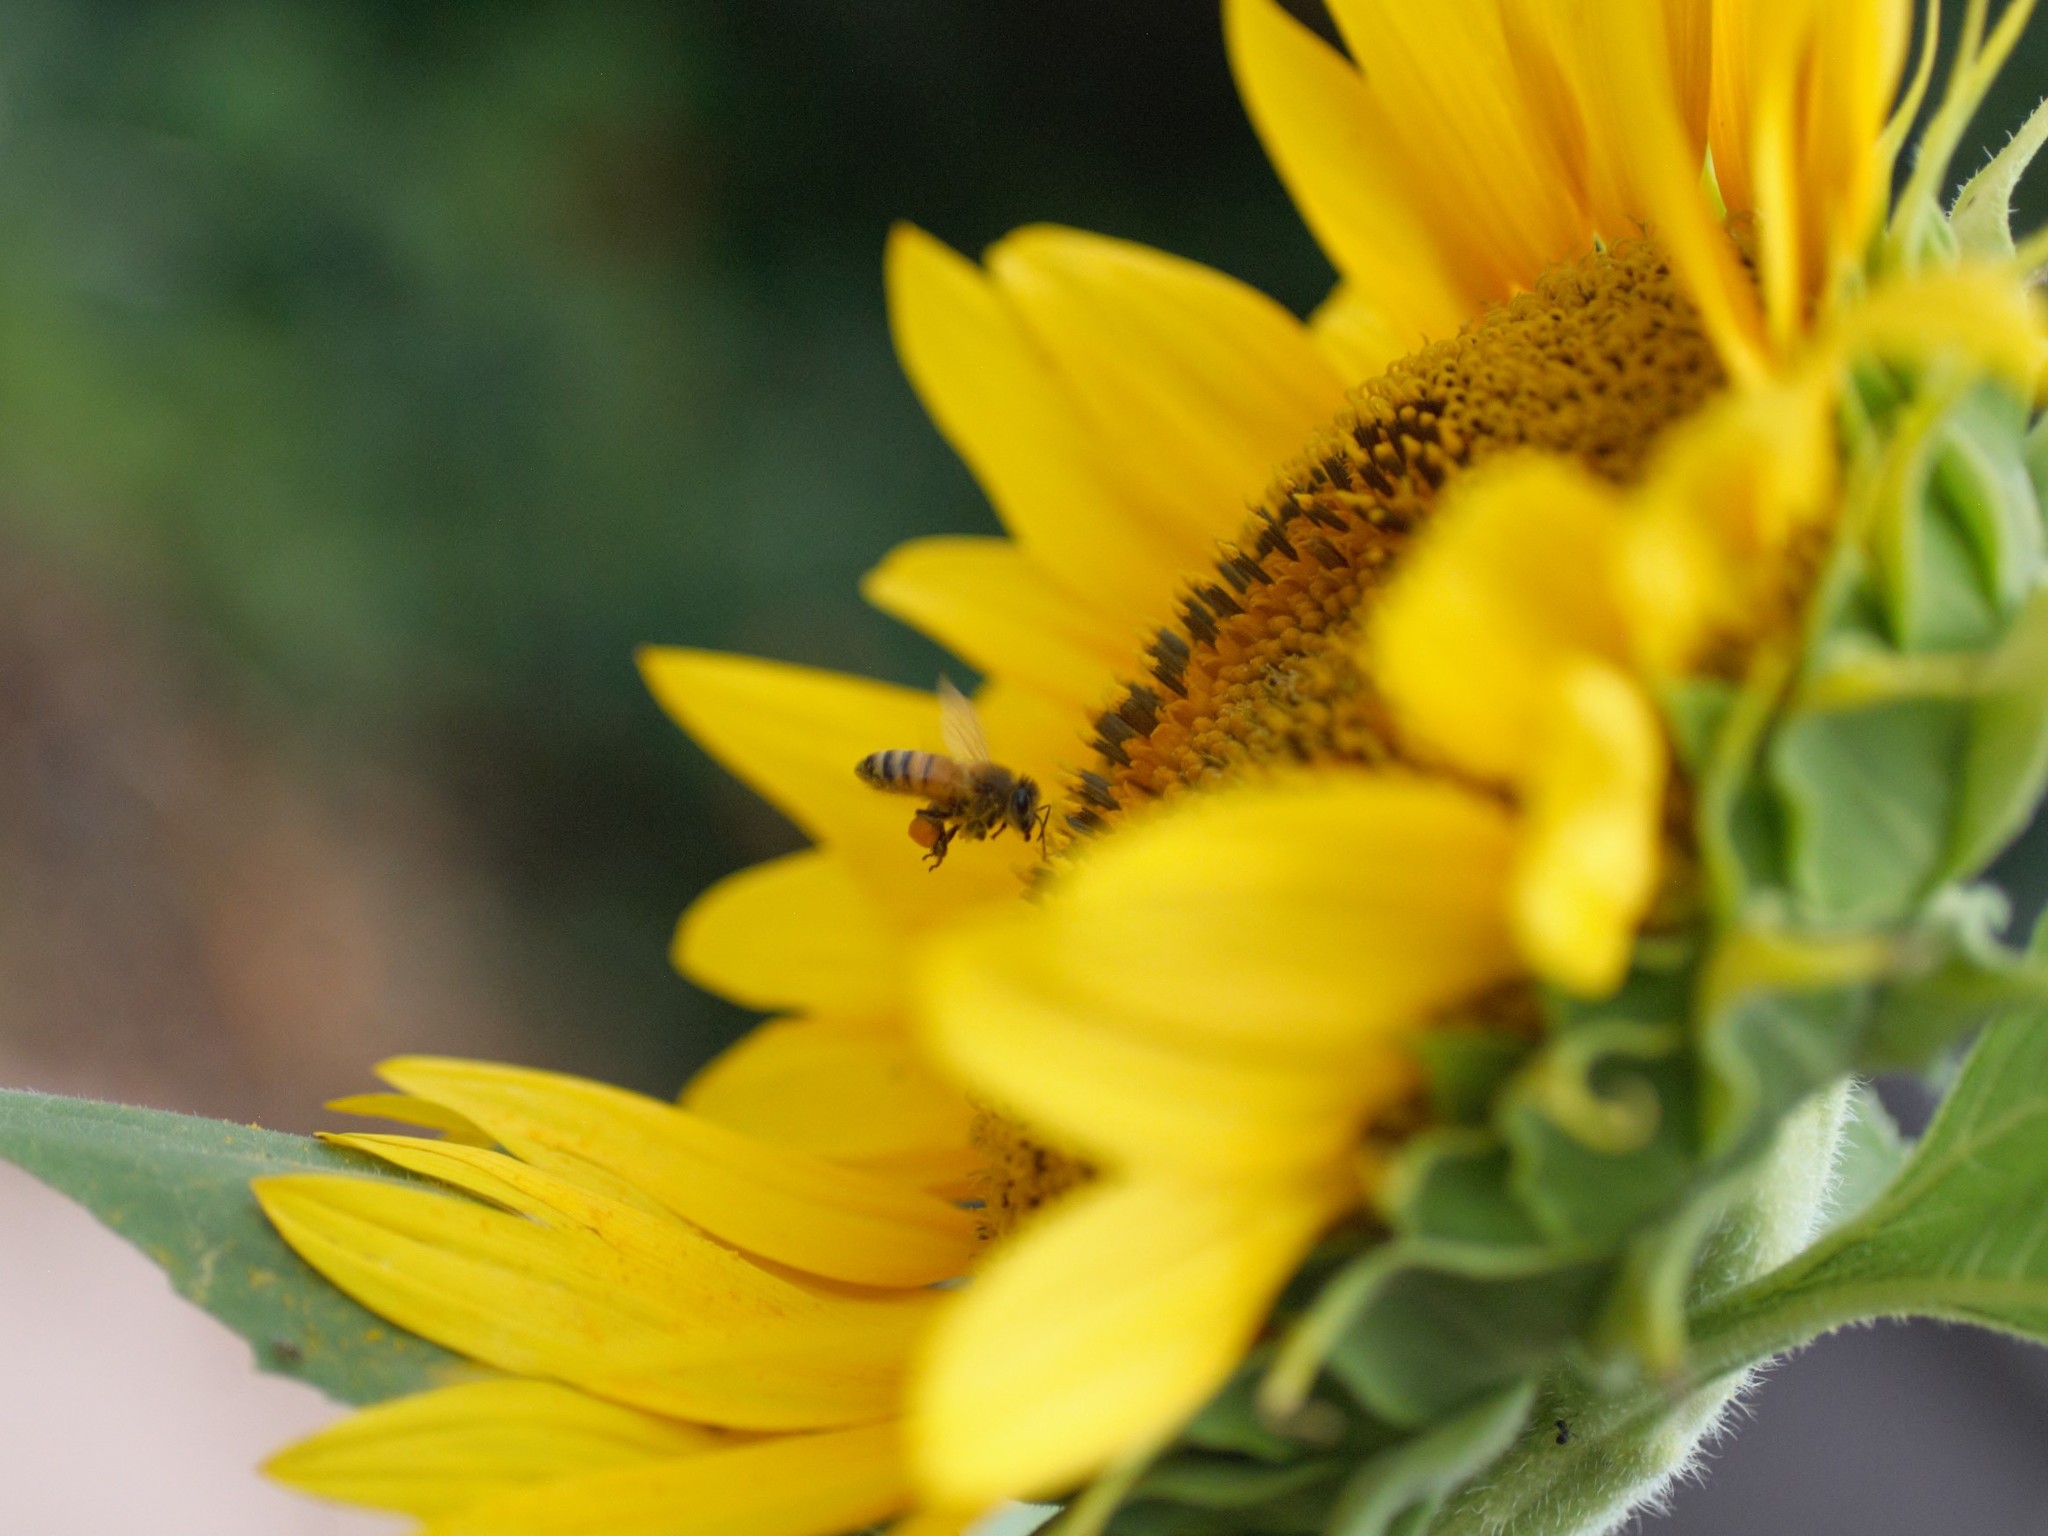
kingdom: Animalia
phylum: Arthropoda
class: Insecta
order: Hymenoptera
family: Apidae
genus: Apis
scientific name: Apis mellifera
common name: Honey bee
